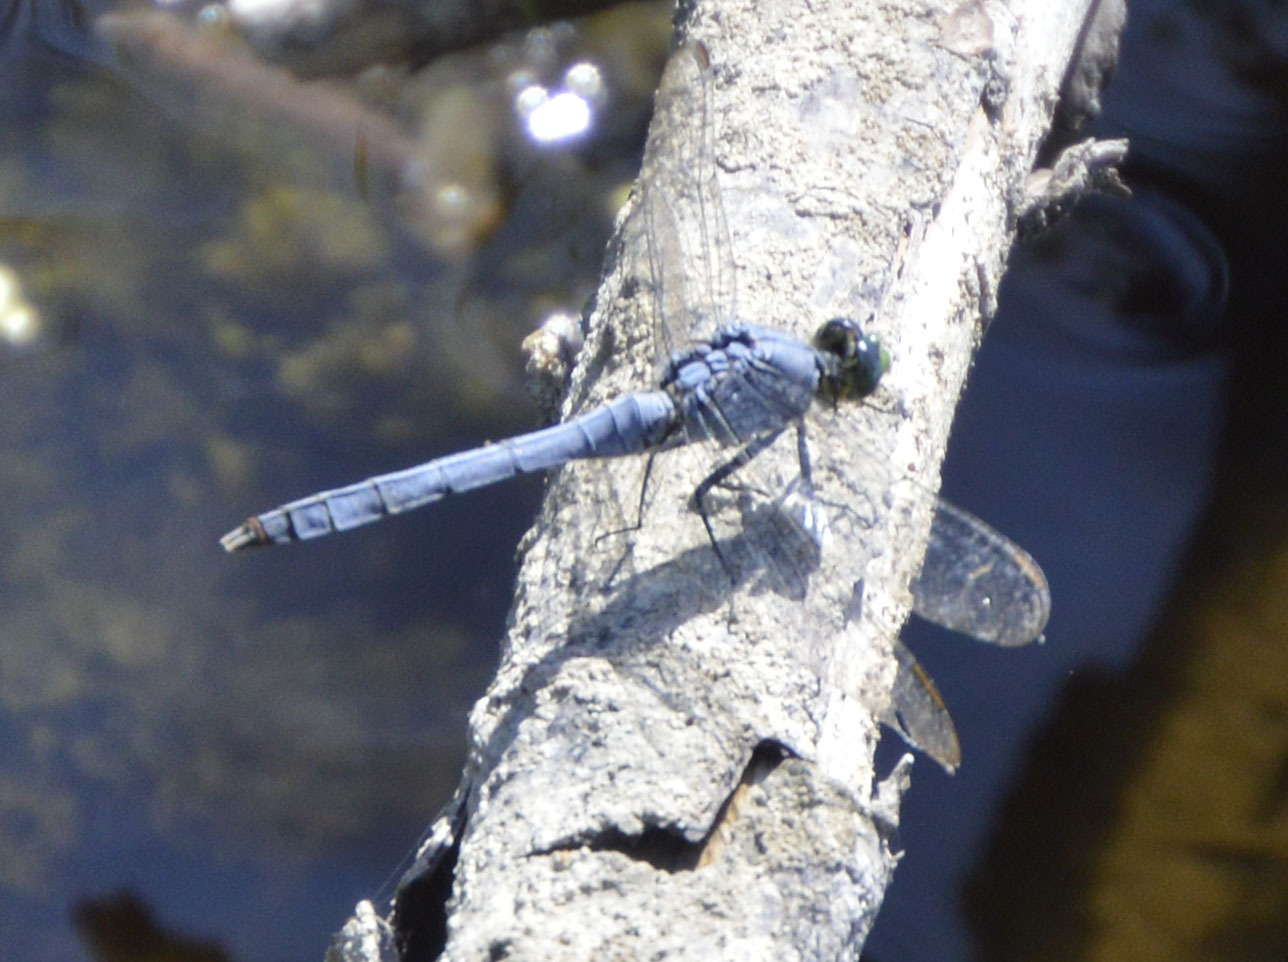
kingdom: Animalia
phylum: Arthropoda
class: Insecta
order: Odonata
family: Libellulidae
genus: Erythemis
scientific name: Erythemis simplicicollis
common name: Eastern pondhawk
